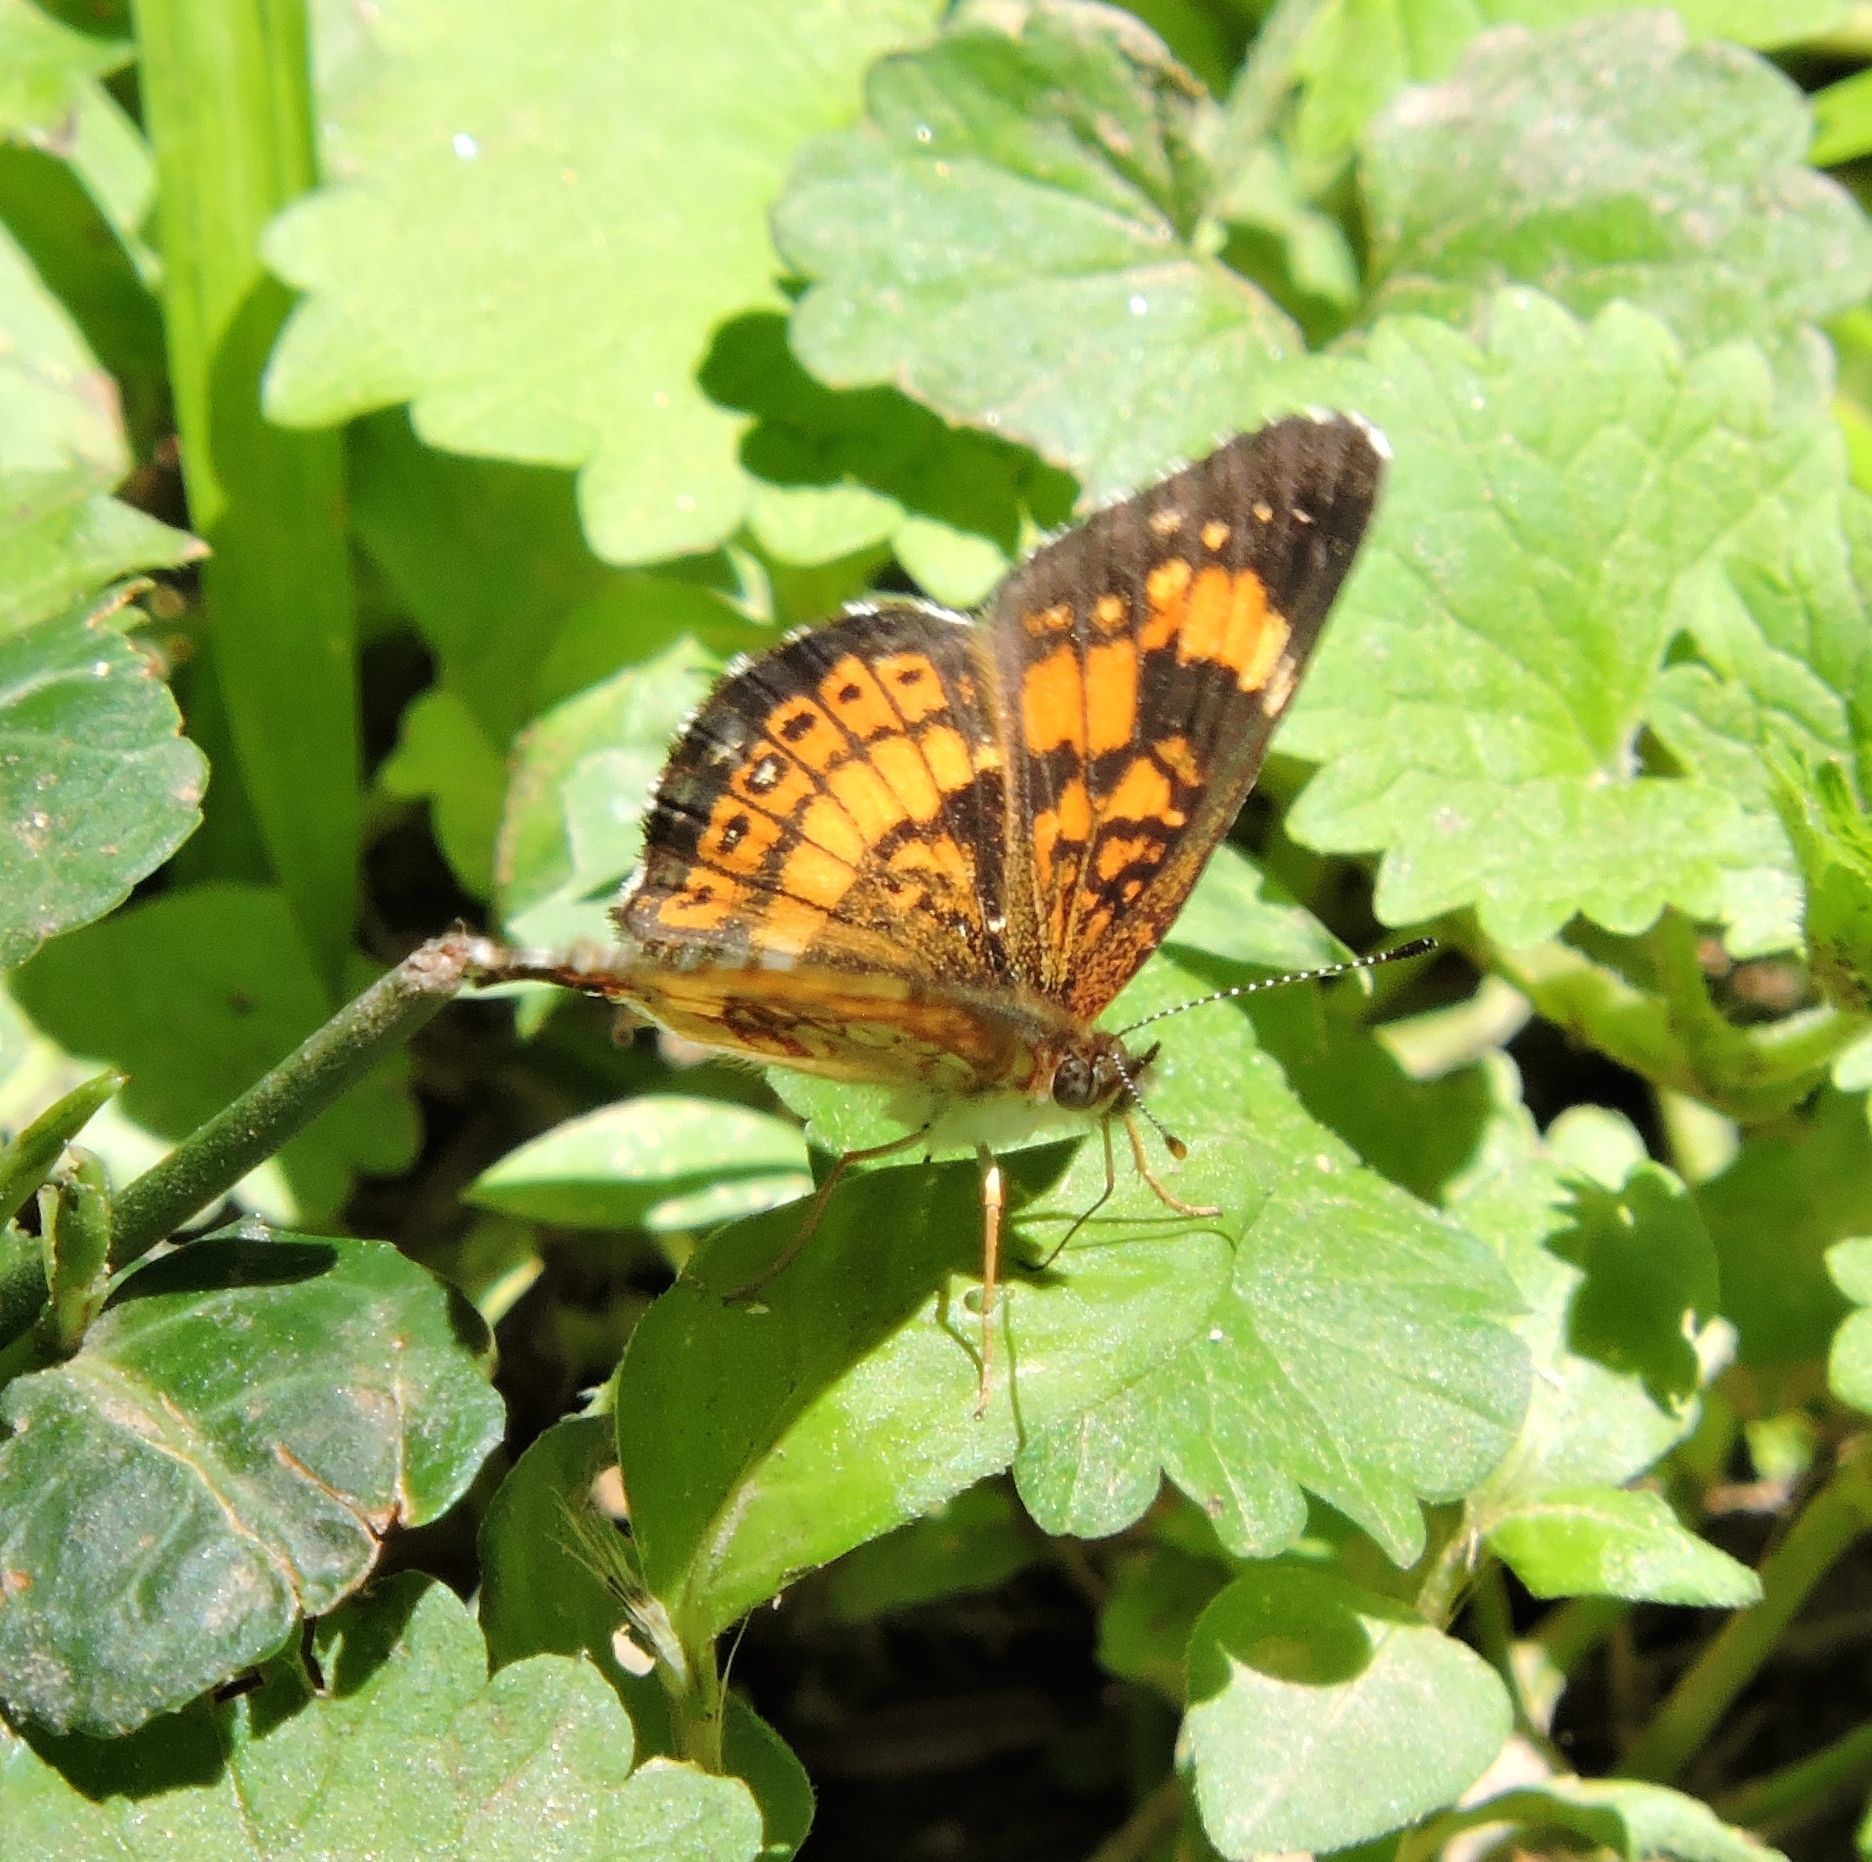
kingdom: Animalia
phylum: Arthropoda
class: Insecta
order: Lepidoptera
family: Nymphalidae
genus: Chlosyne
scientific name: Chlosyne nycteis
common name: Silvery checkerspot
